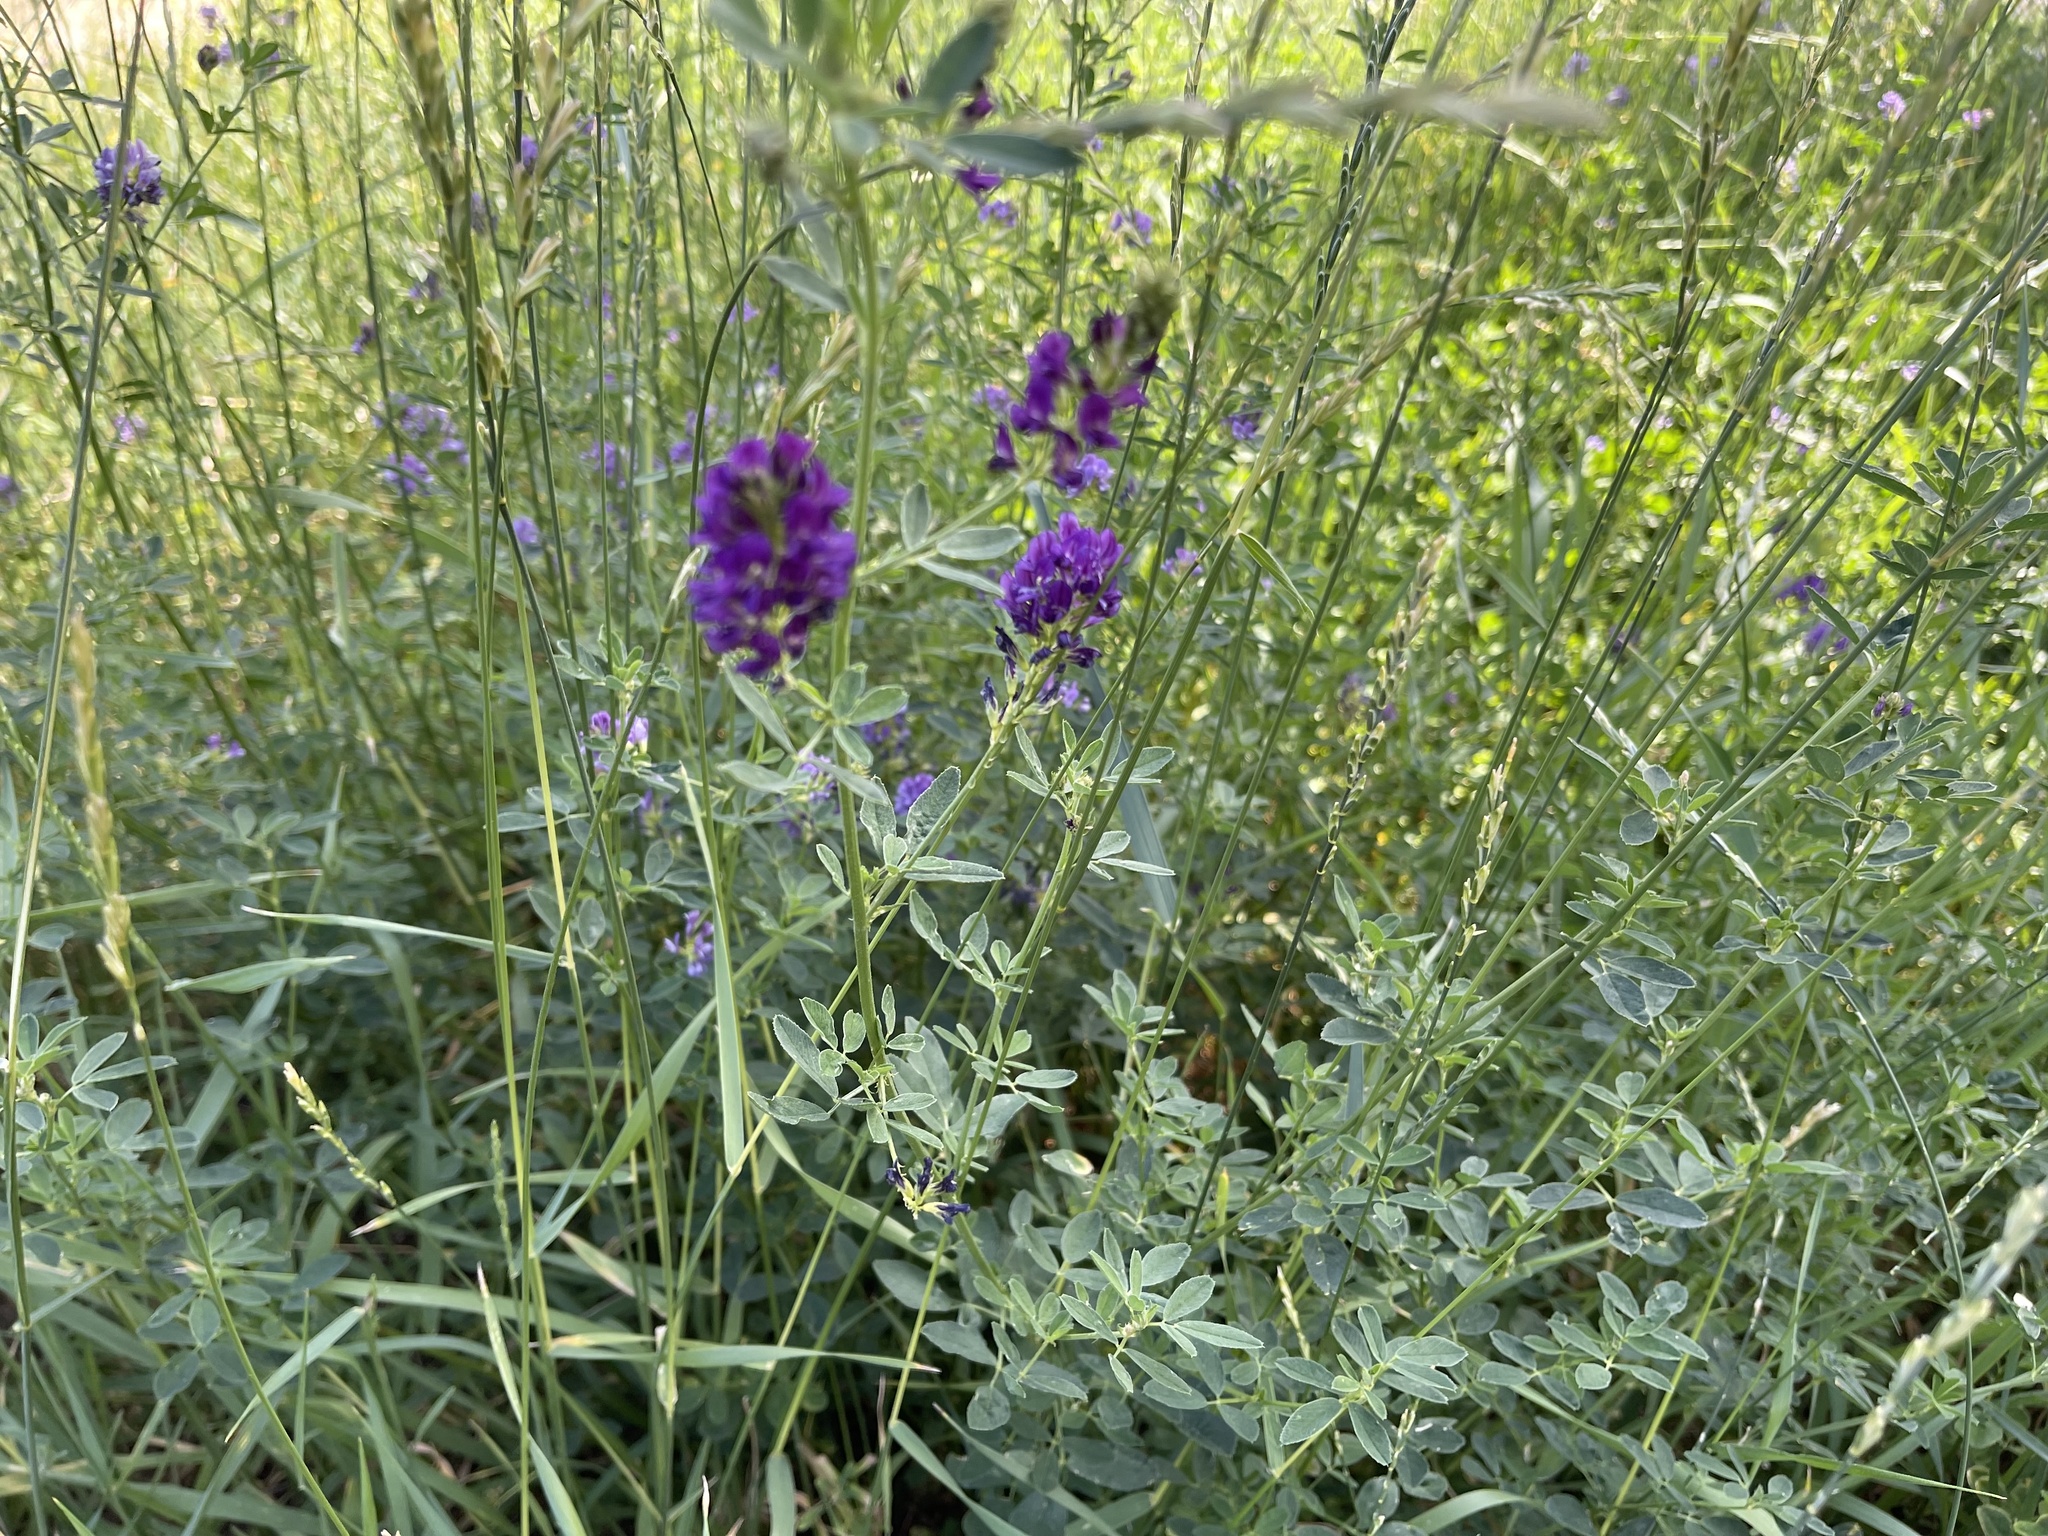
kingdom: Plantae
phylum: Tracheophyta
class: Magnoliopsida
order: Fabales
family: Fabaceae
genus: Medicago
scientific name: Medicago sativa
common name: Alfalfa
